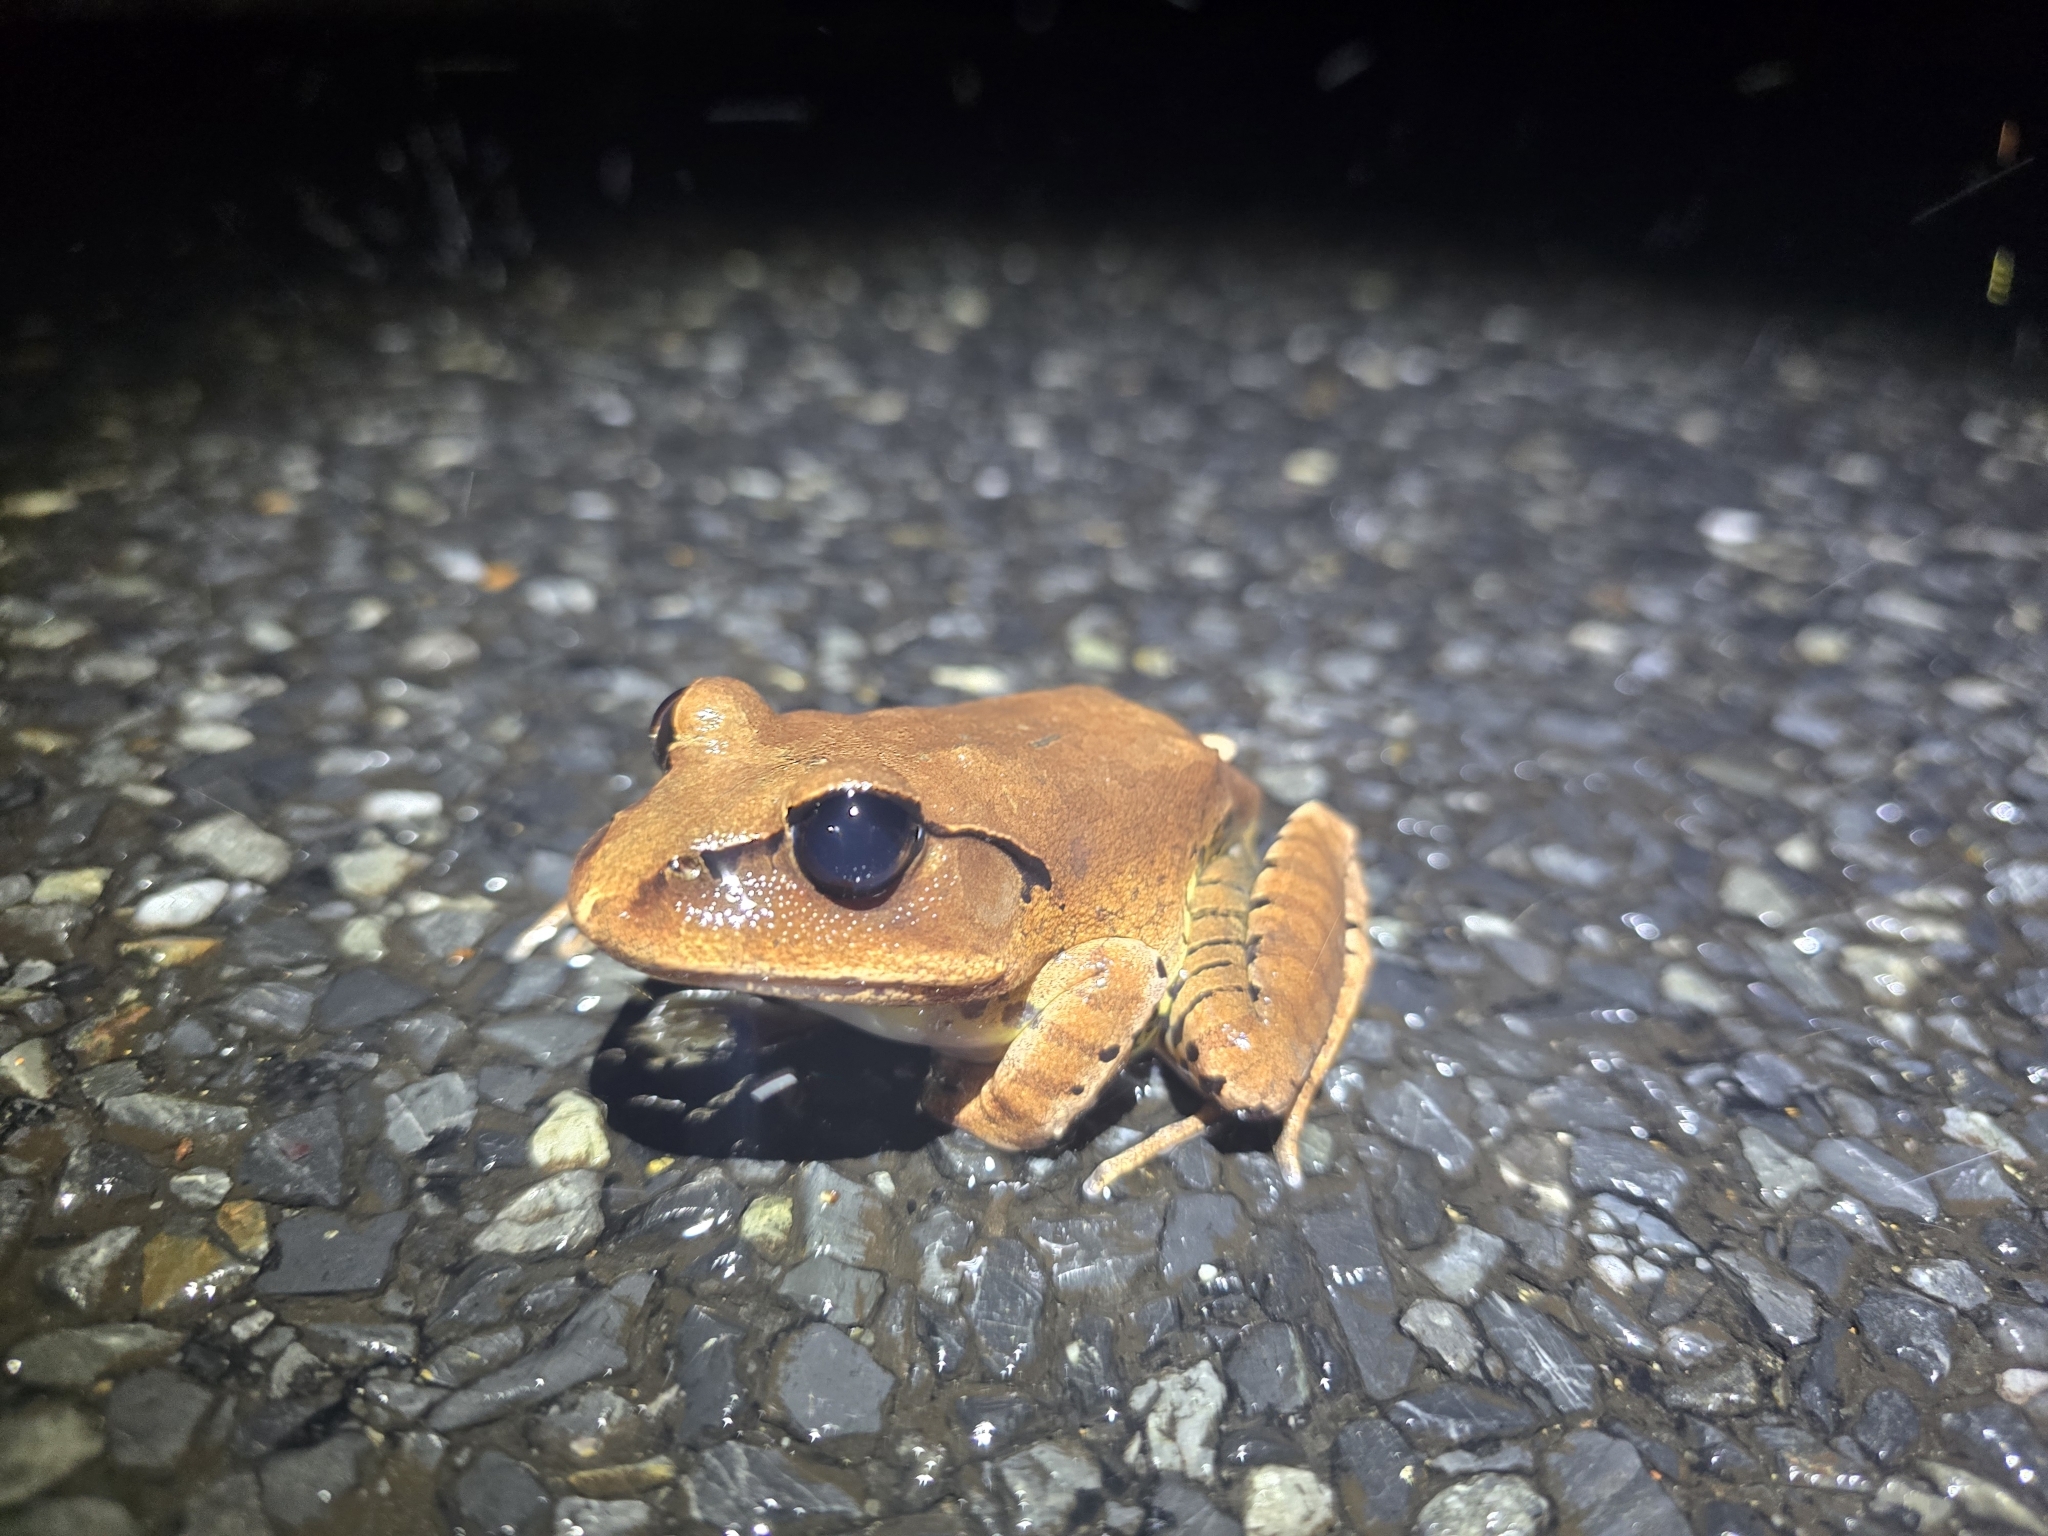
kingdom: Animalia
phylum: Chordata
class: Amphibia
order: Anura
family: Myobatrachidae
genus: Mixophyes
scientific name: Mixophyes fasciolatus
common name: Great barred river-frog
